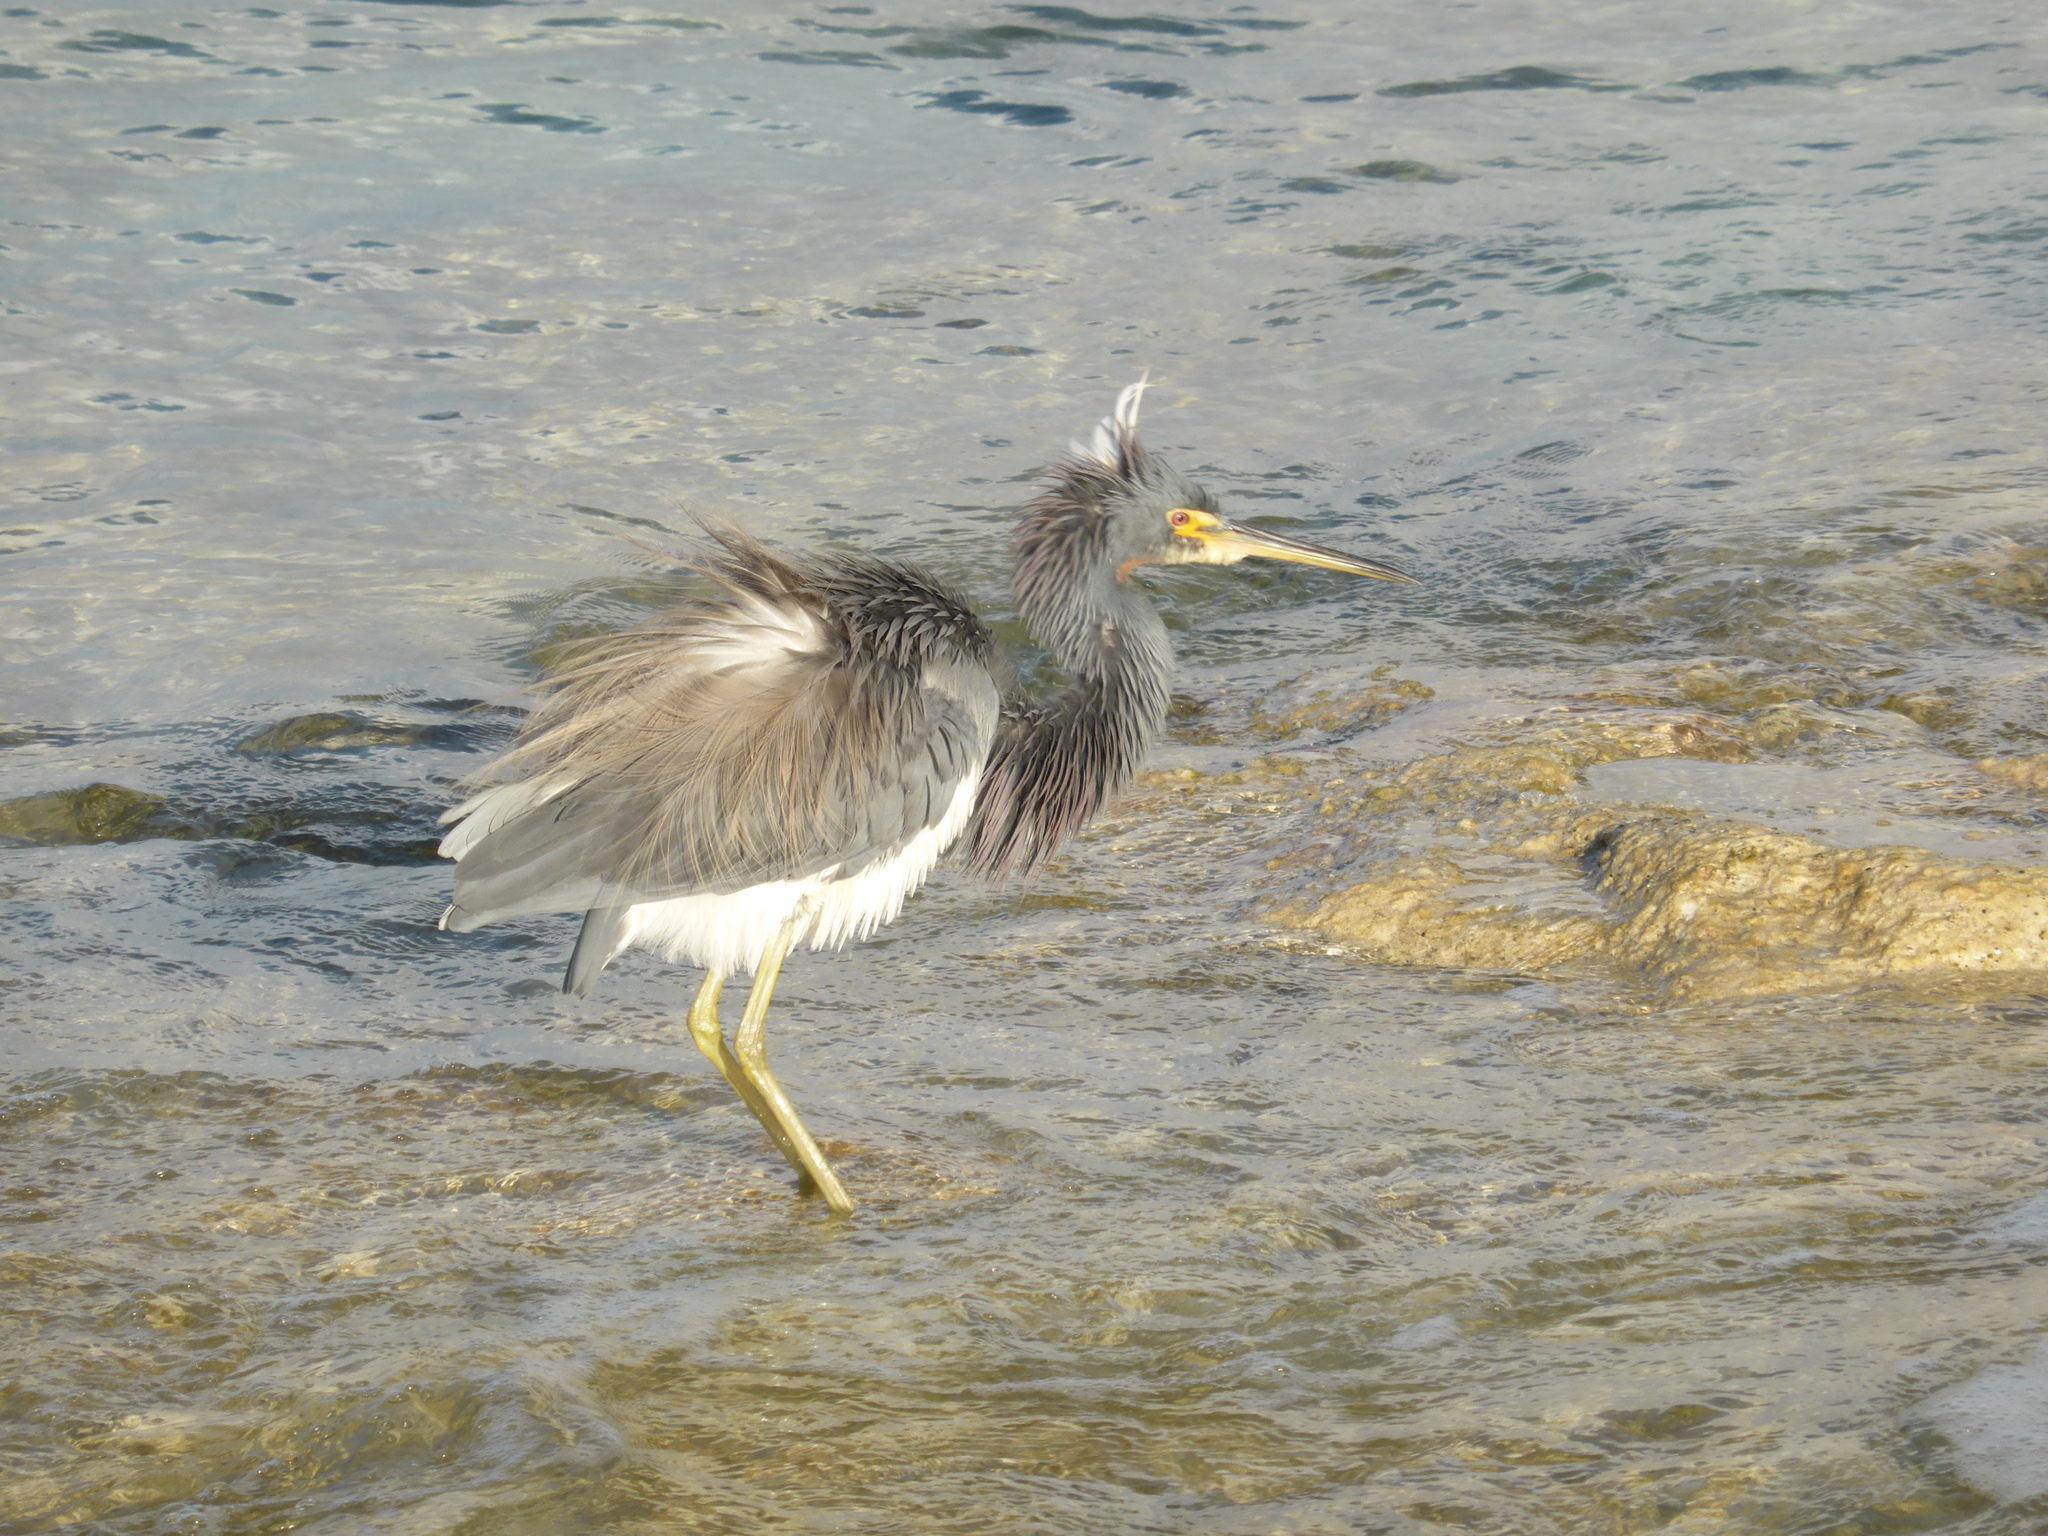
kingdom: Animalia
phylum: Chordata
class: Aves
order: Pelecaniformes
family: Ardeidae
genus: Egretta
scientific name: Egretta tricolor
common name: Tricolored heron
